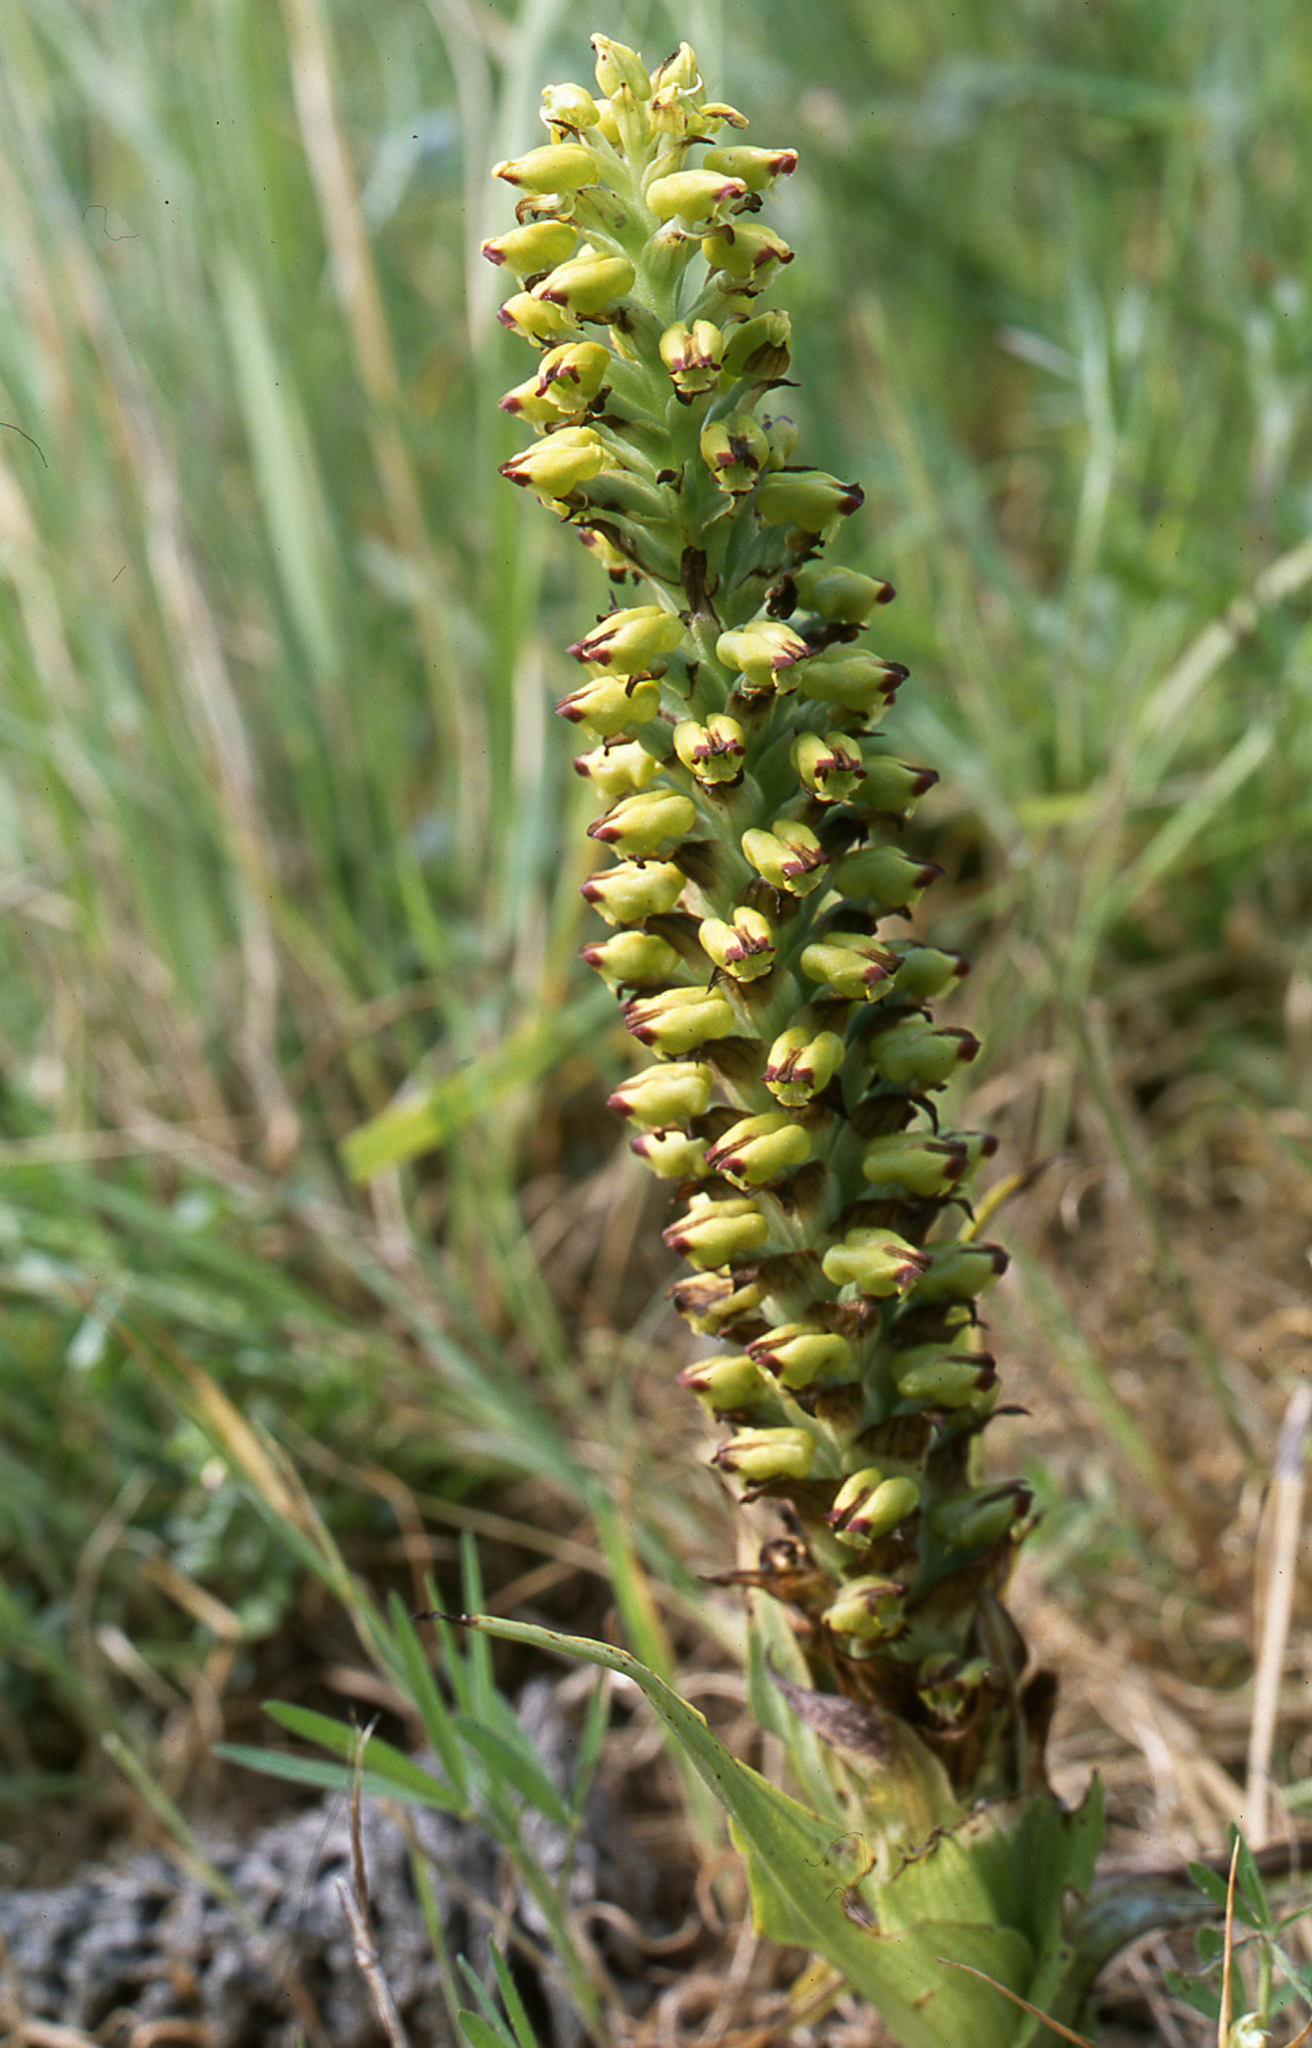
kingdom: Plantae
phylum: Tracheophyta
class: Liliopsida
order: Asparagales
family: Orchidaceae
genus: Corycium
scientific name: Corycium orobanchoides
